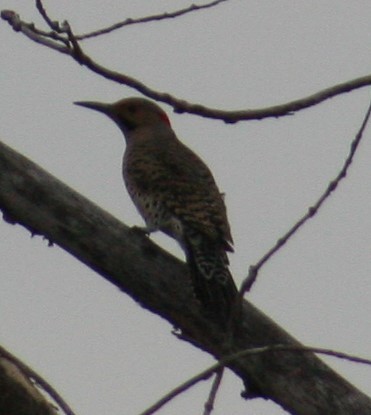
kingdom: Animalia
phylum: Chordata
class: Aves
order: Piciformes
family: Picidae
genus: Colaptes
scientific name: Colaptes auratus
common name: Northern flicker
